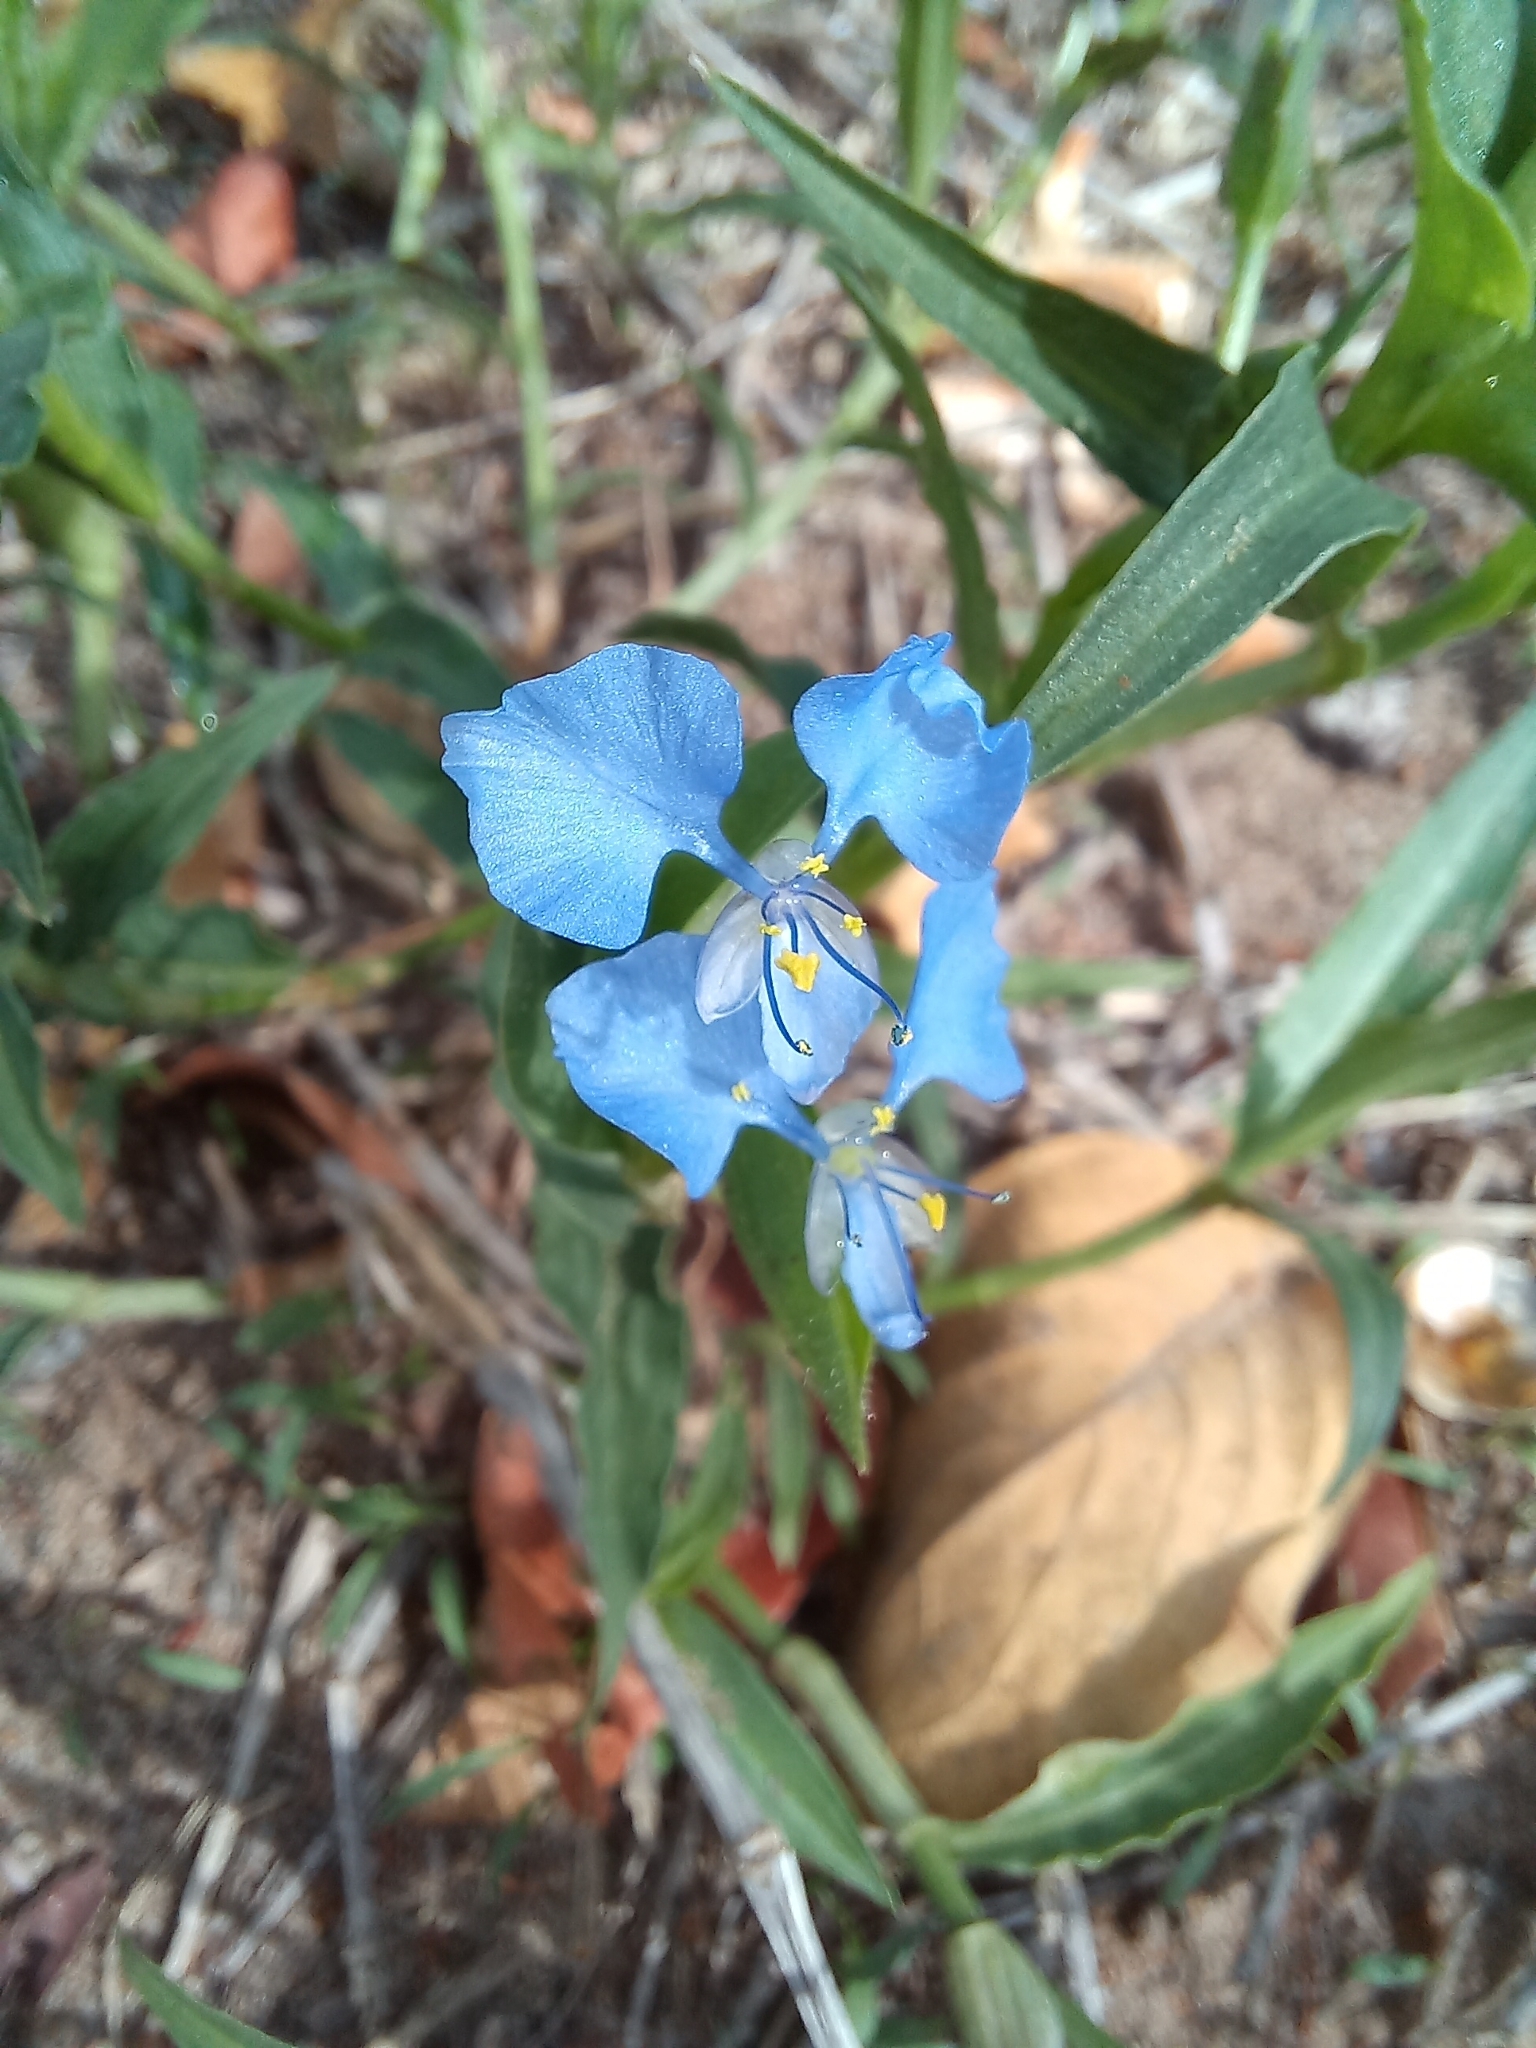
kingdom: Plantae
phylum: Tracheophyta
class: Liliopsida
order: Commelinales
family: Commelinaceae
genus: Commelina
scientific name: Commelina modesta
